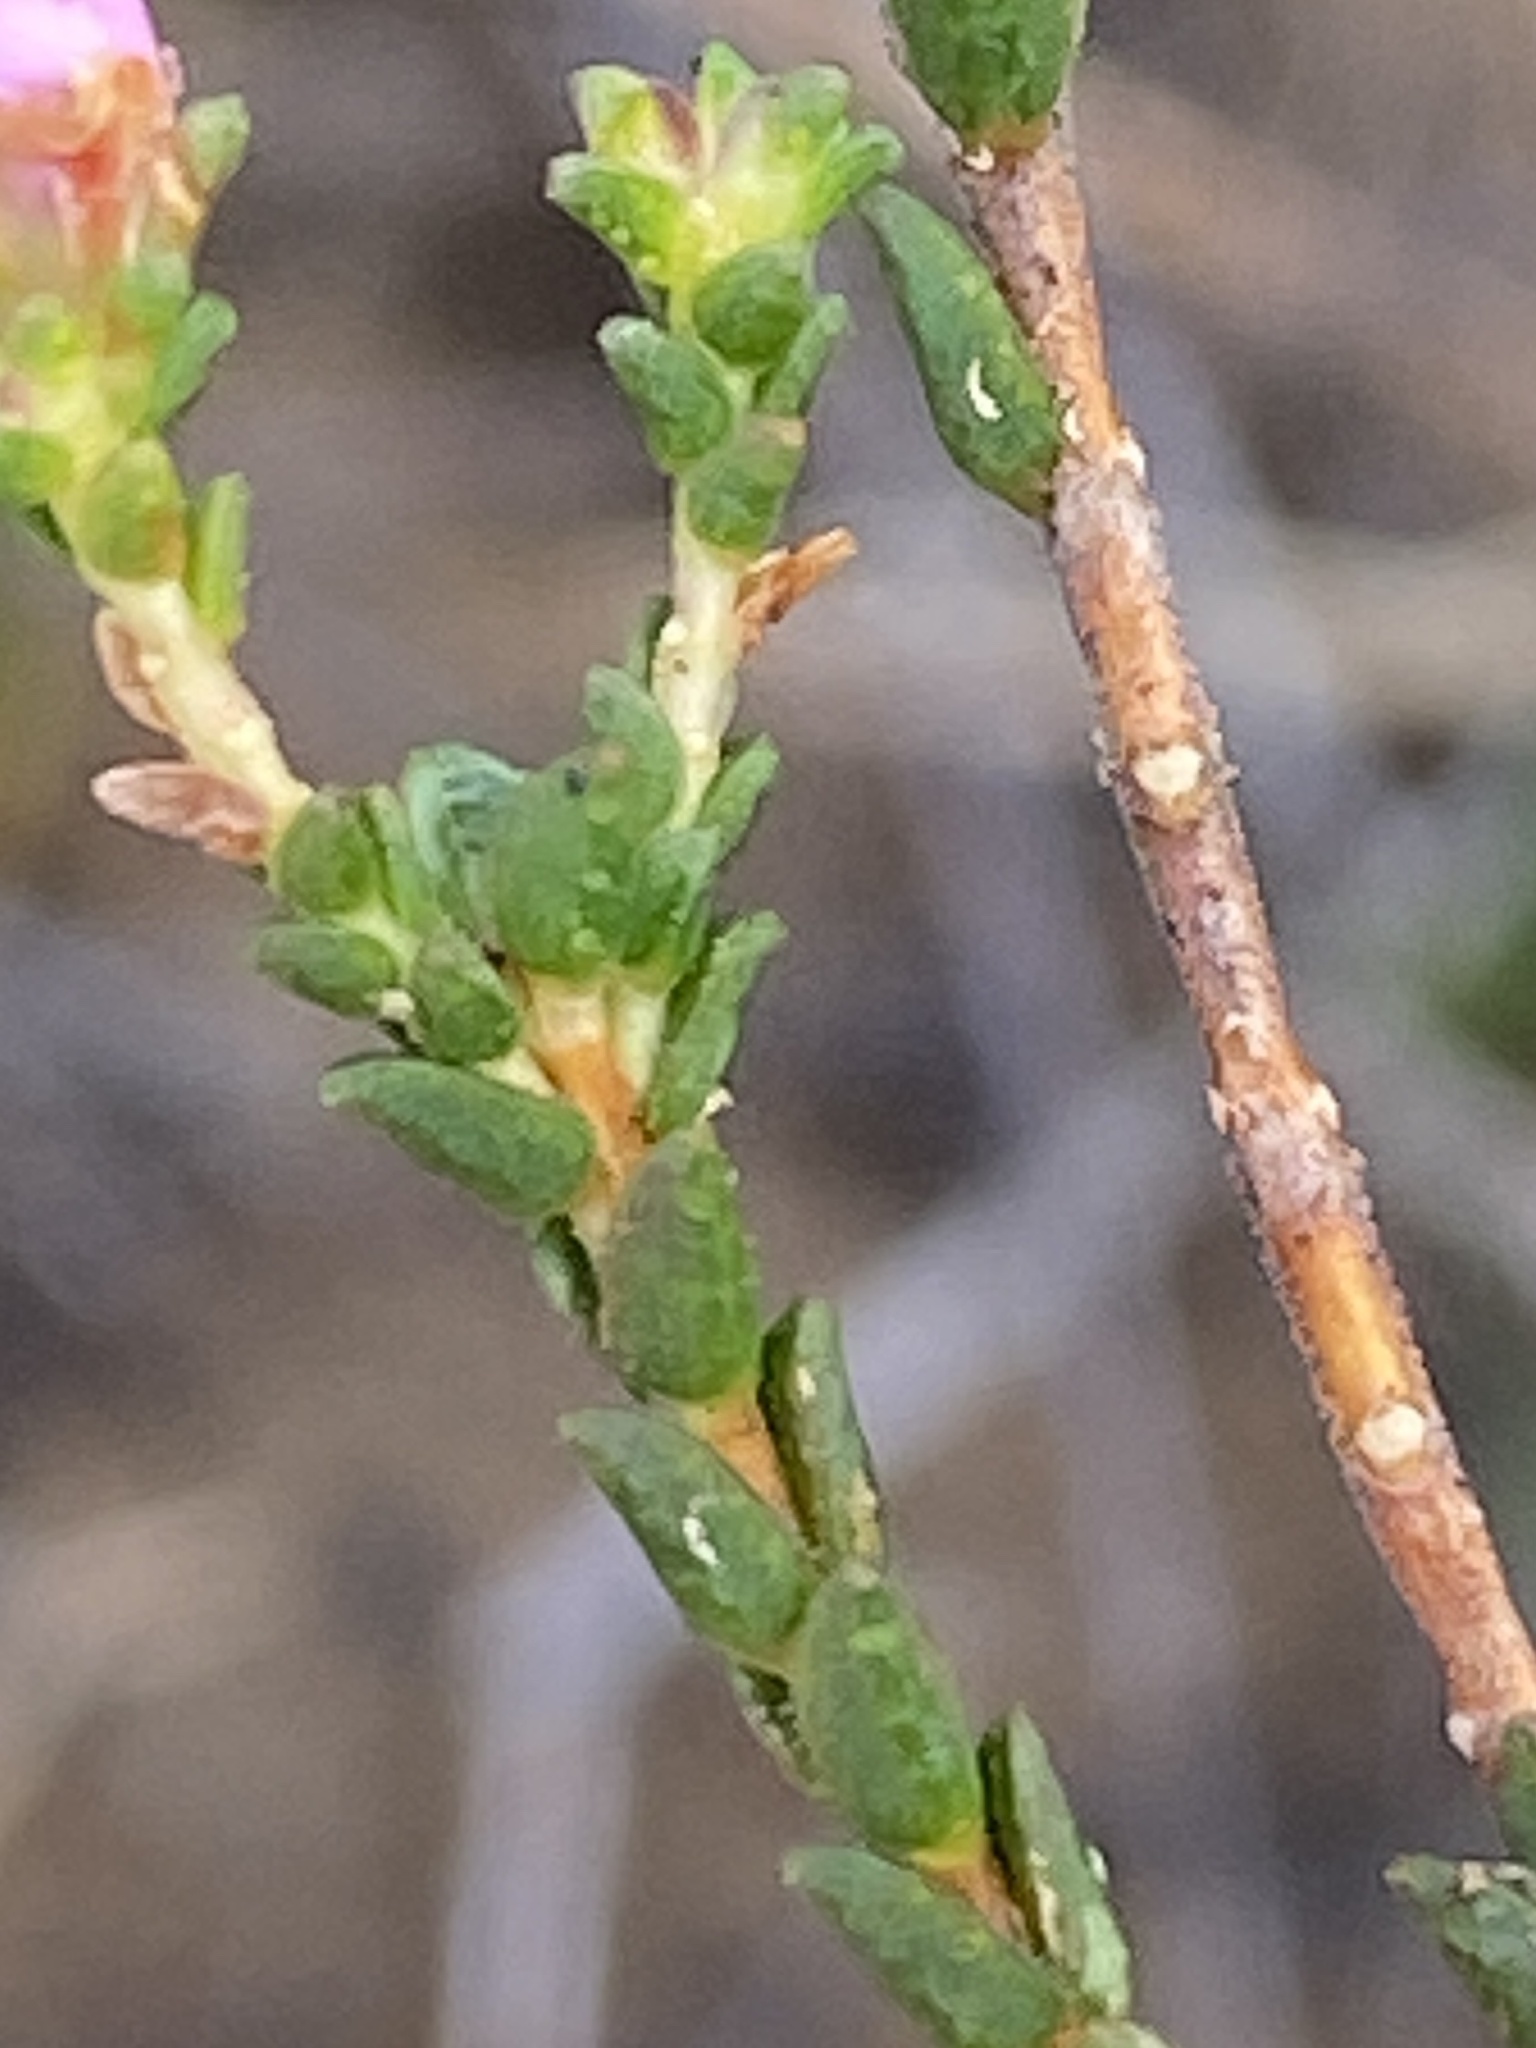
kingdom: Plantae
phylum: Tracheophyta
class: Magnoliopsida
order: Sapindales
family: Rutaceae
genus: Euchaetis
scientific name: Euchaetis albertiniana
